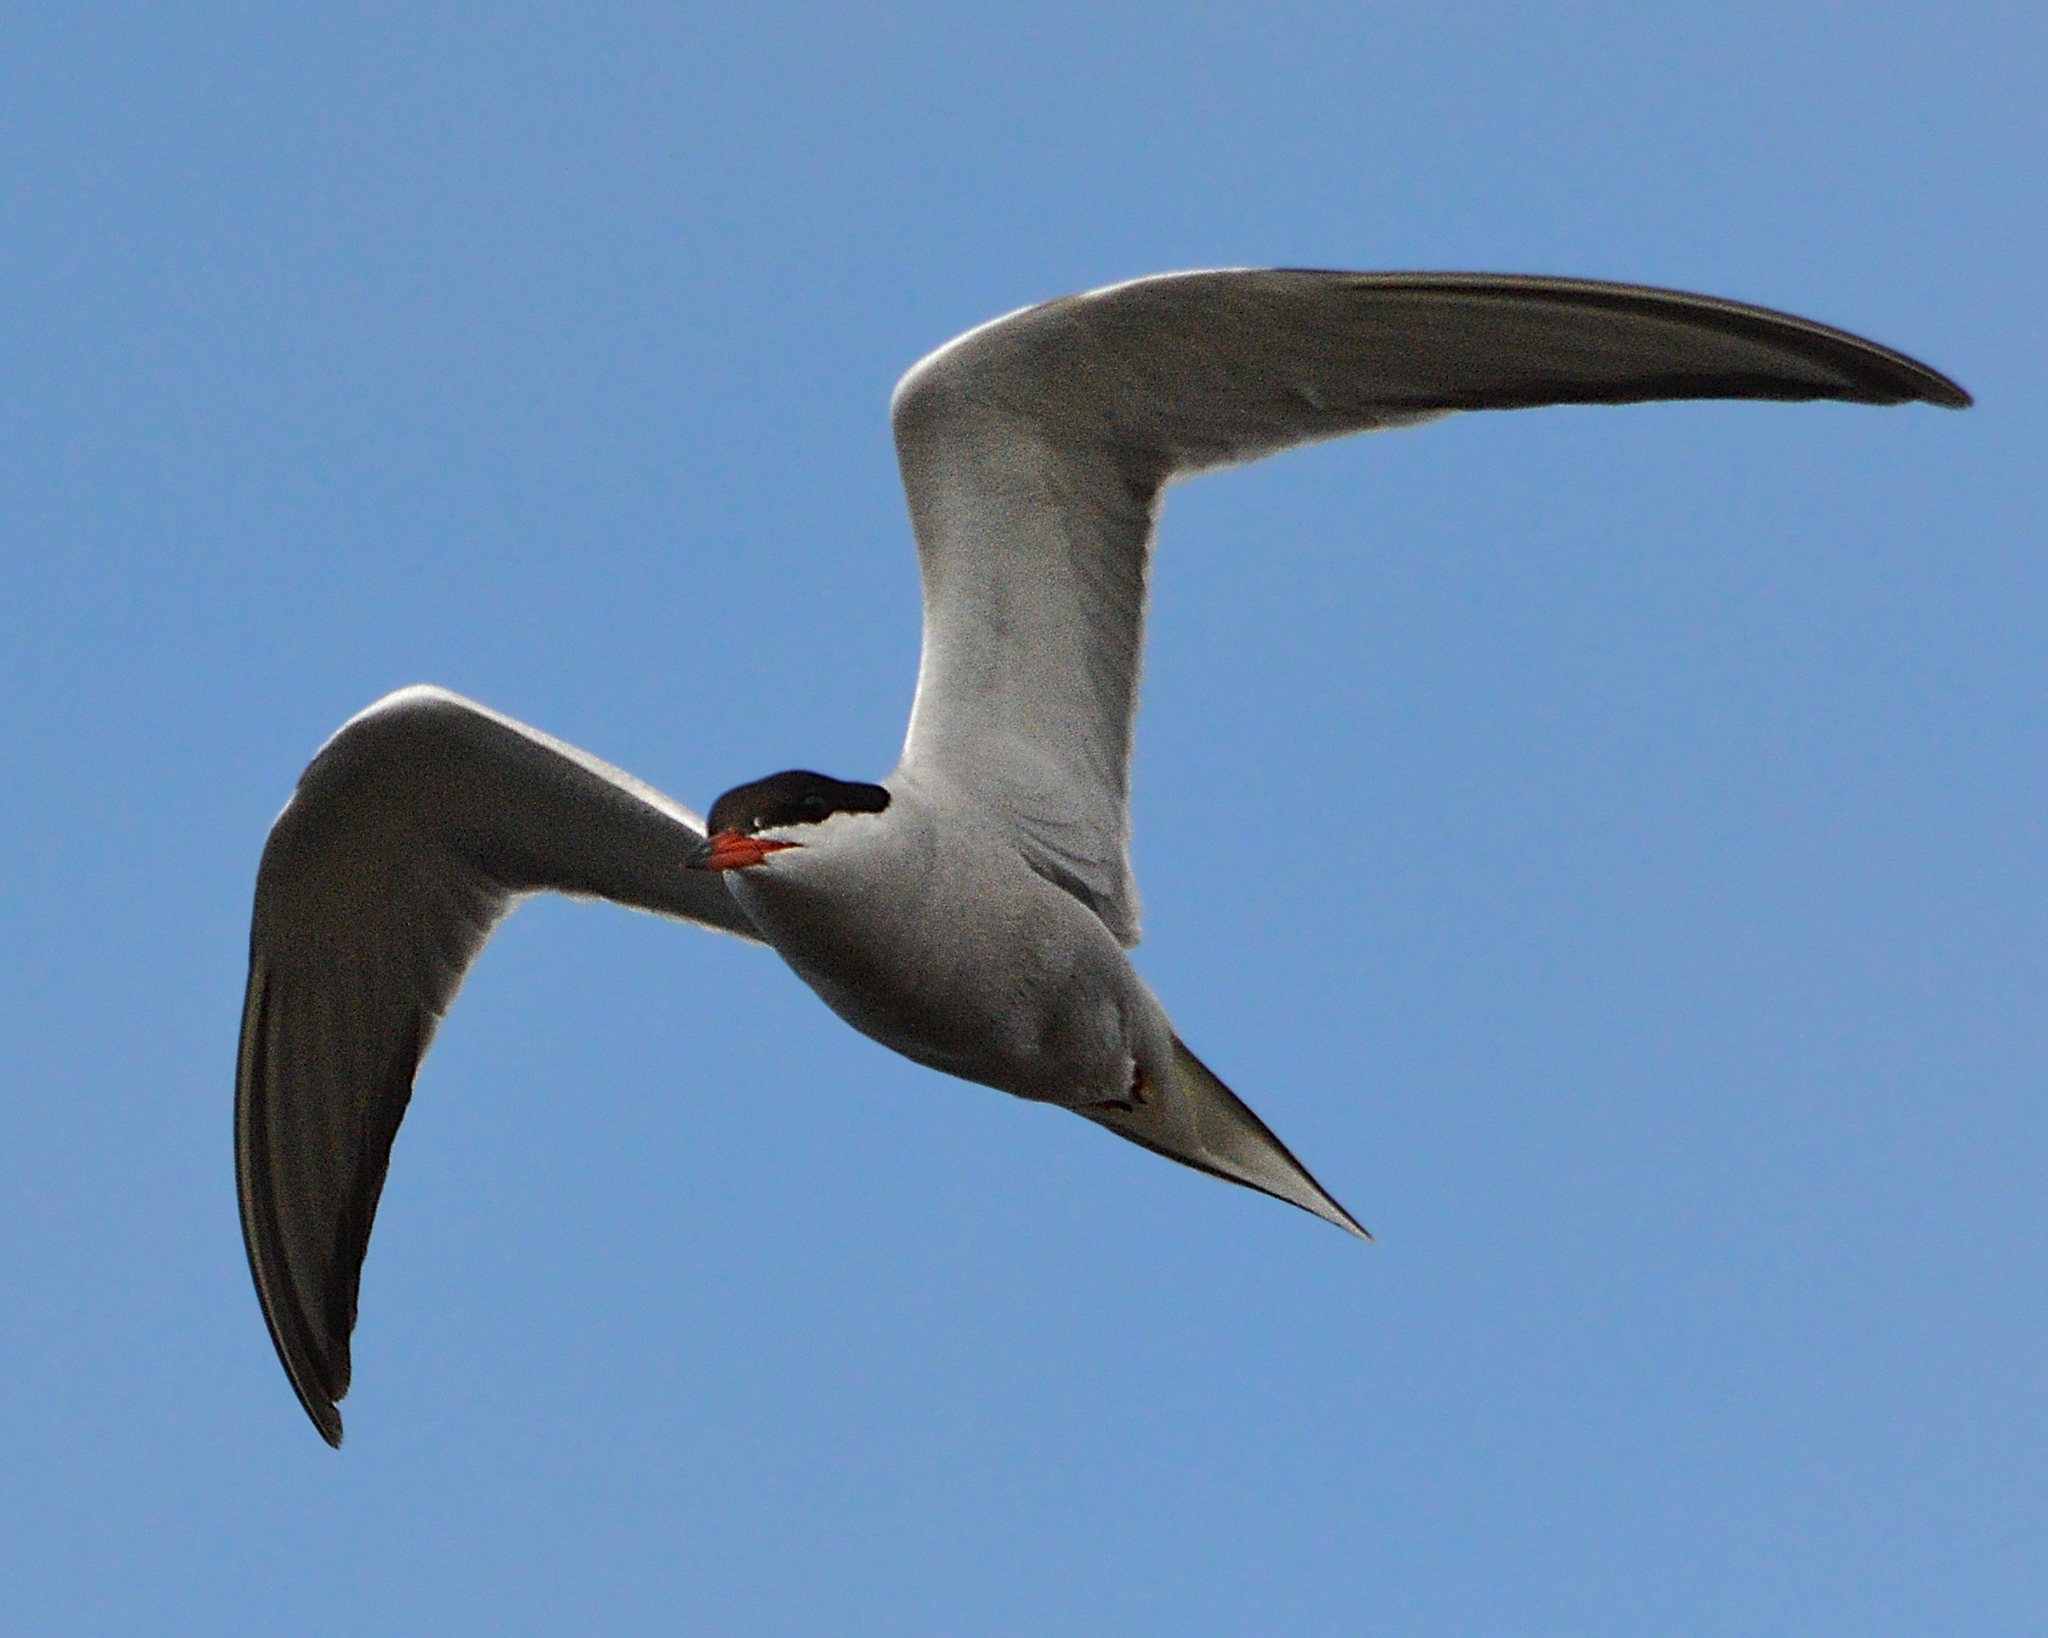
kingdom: Animalia
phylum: Chordata
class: Aves
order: Charadriiformes
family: Laridae
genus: Sterna
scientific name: Sterna hirundo
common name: Common tern
